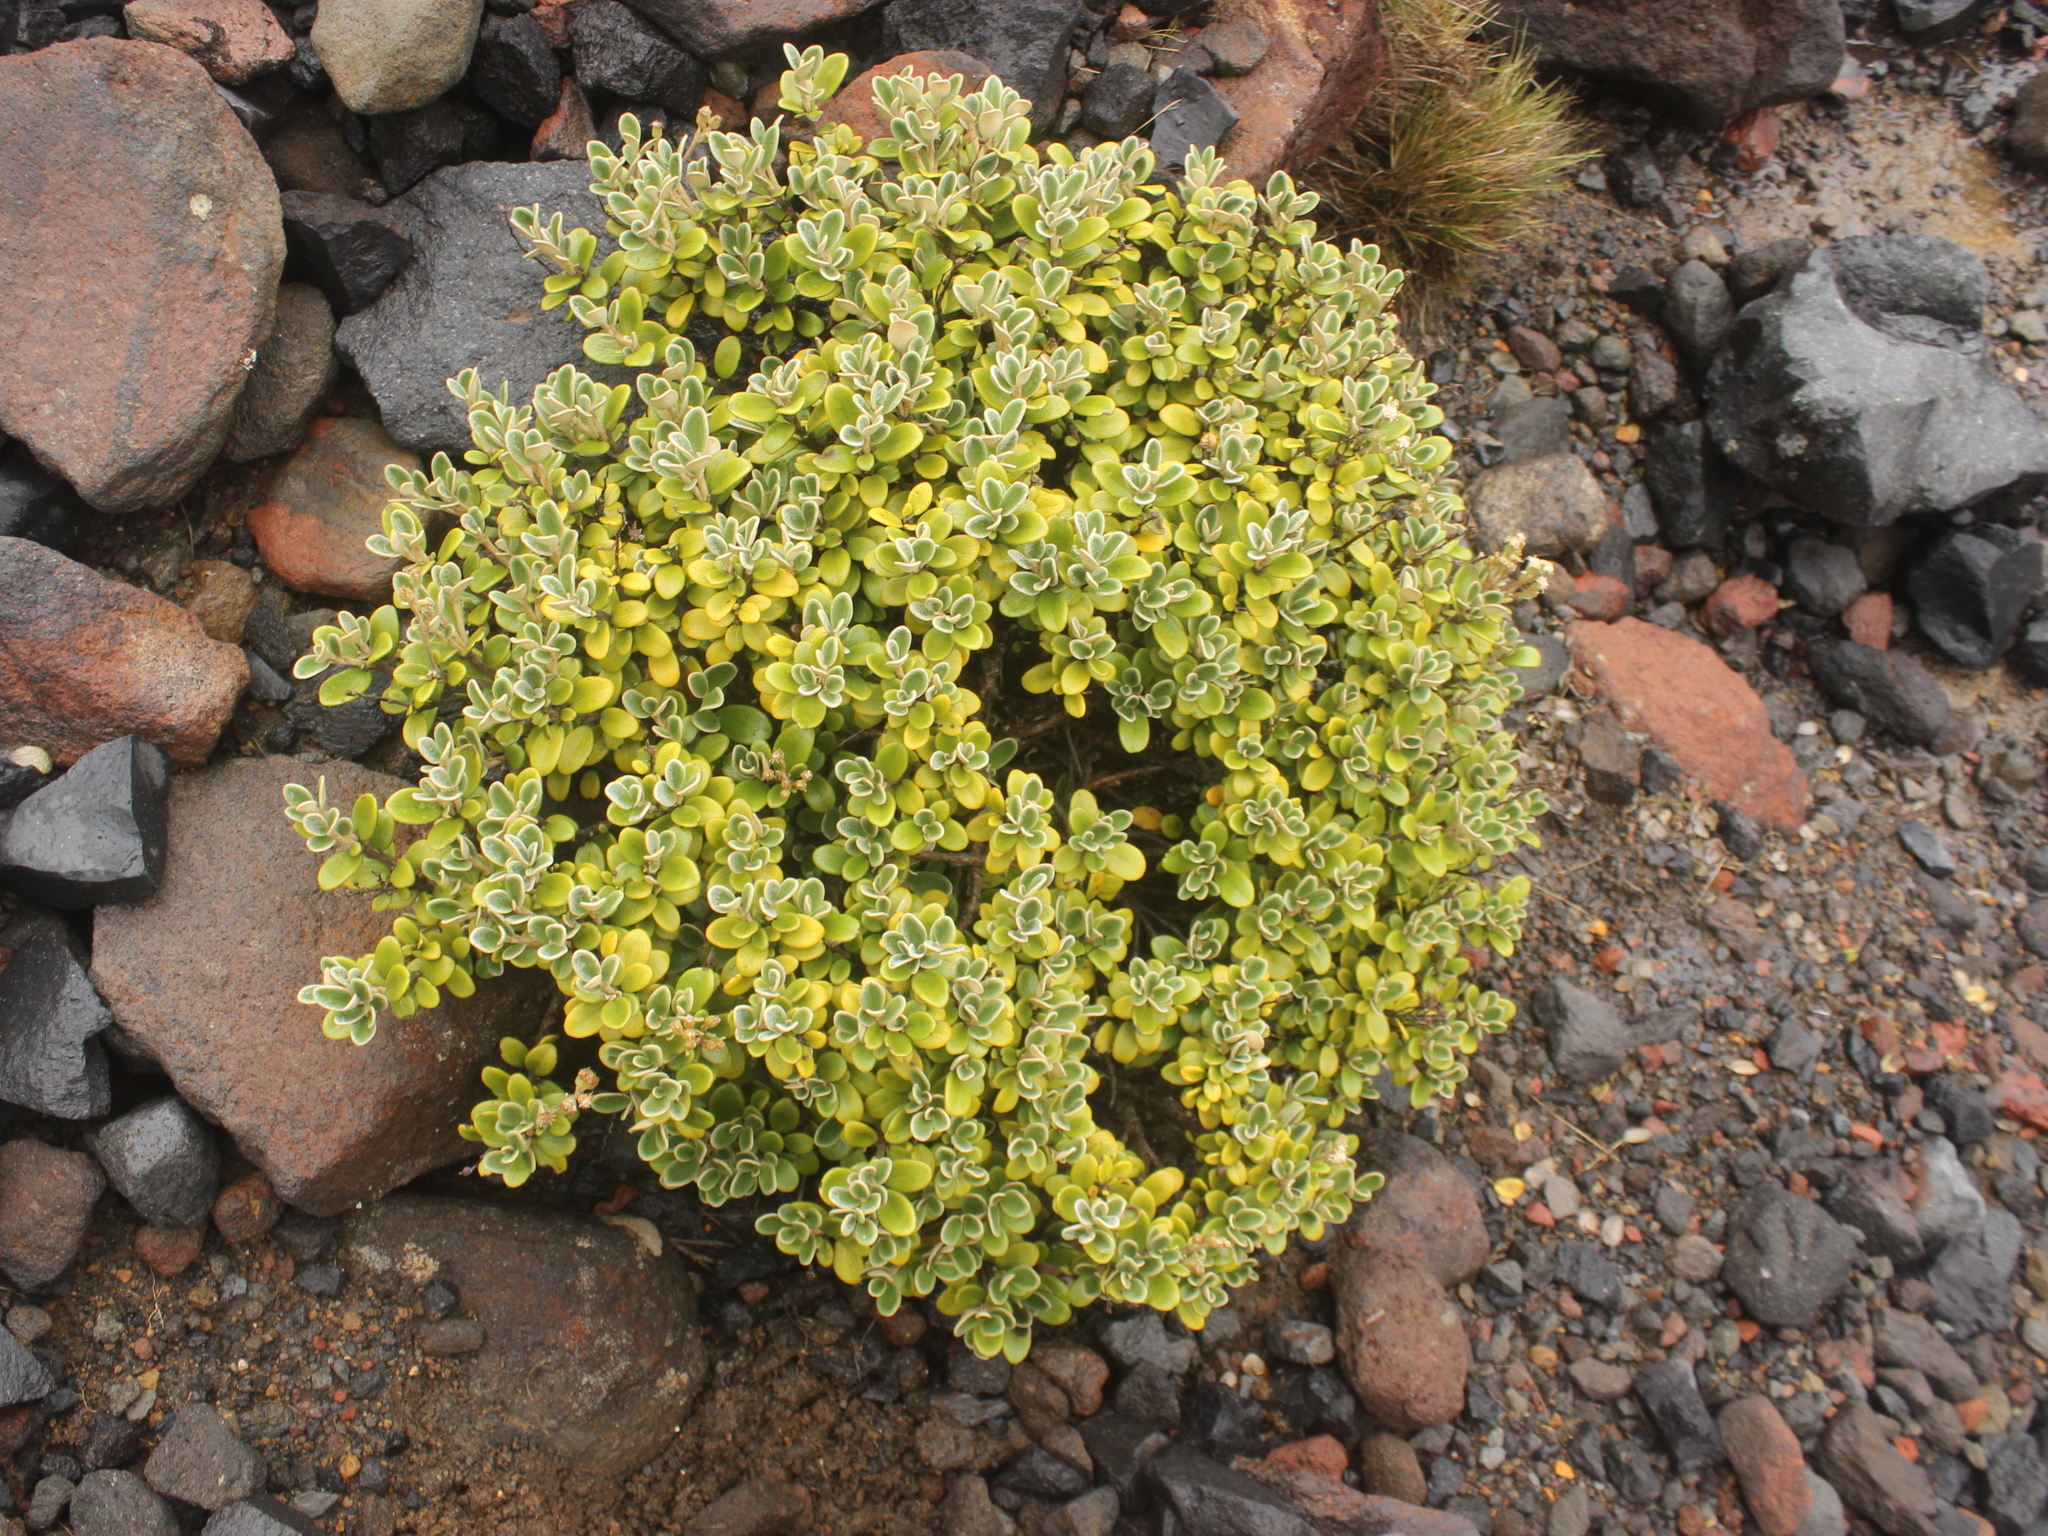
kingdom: Plantae
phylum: Tracheophyta
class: Magnoliopsida
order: Asterales
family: Asteraceae
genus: Brachyglottis
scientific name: Brachyglottis bidwillii
